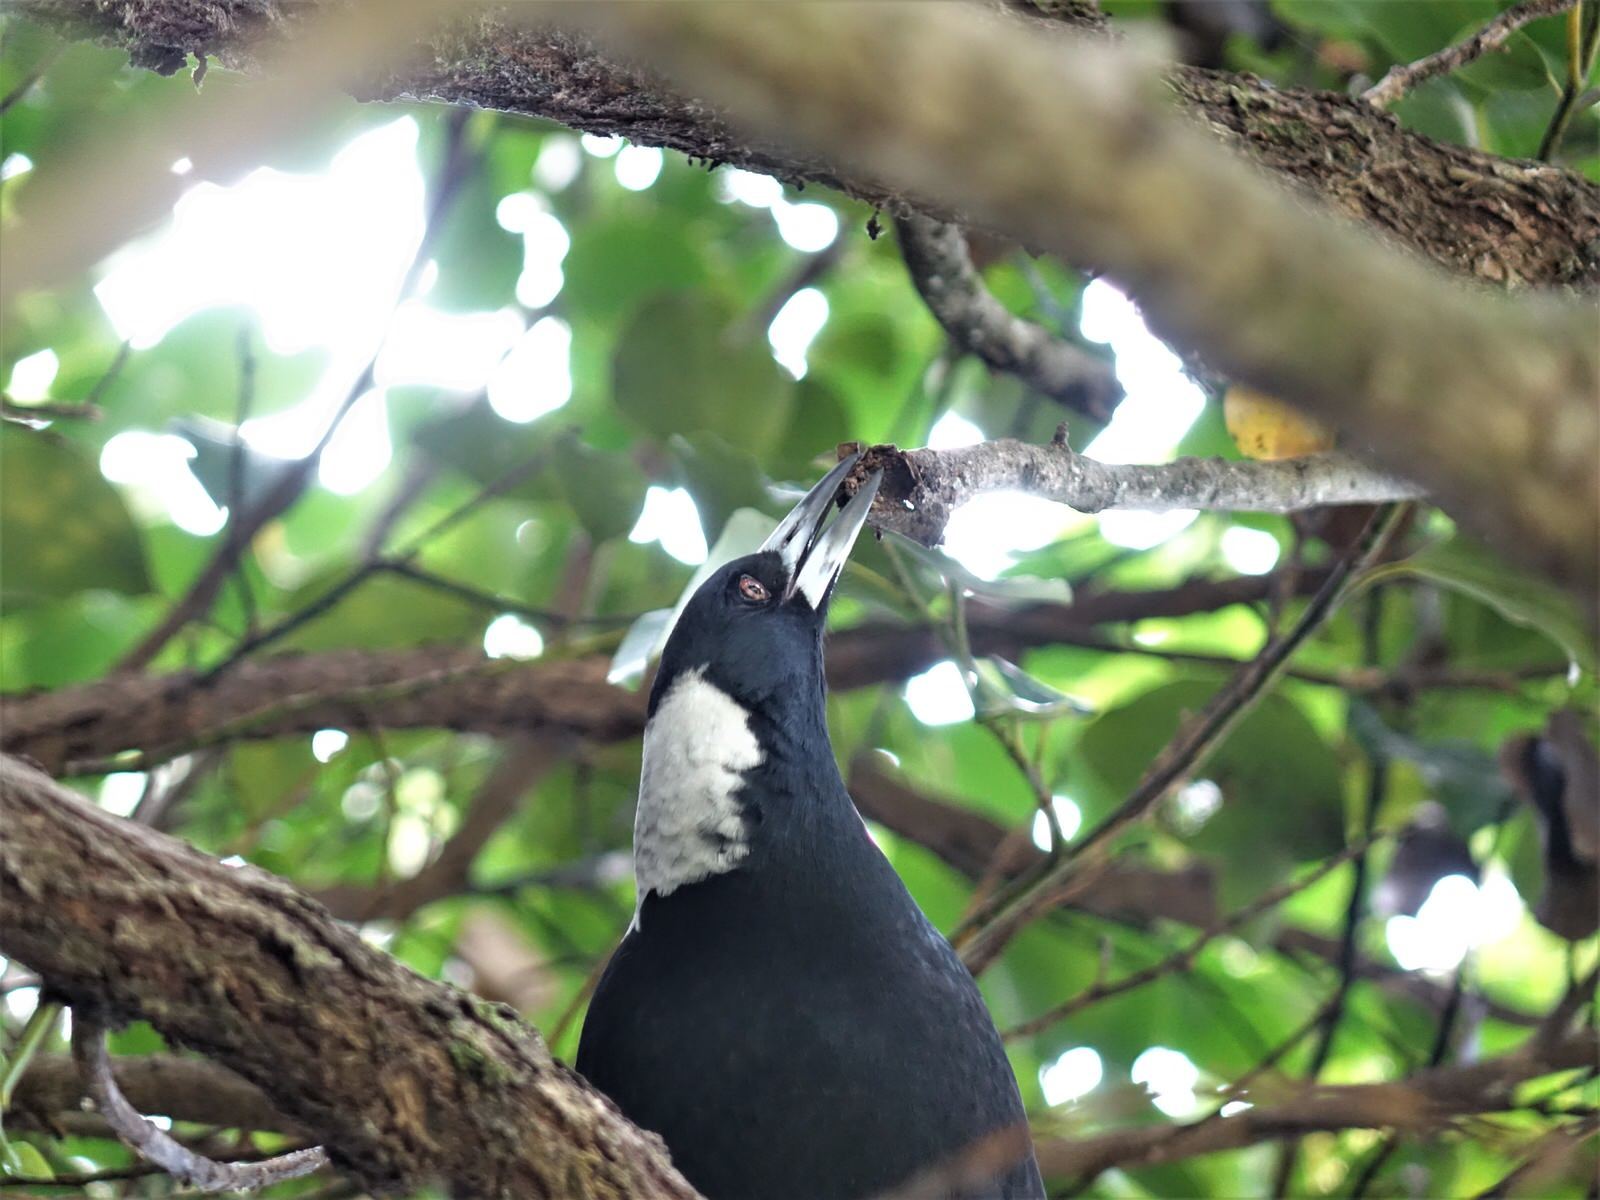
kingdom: Animalia
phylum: Chordata
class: Aves
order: Passeriformes
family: Cracticidae
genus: Gymnorhina
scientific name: Gymnorhina tibicen
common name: Australian magpie
